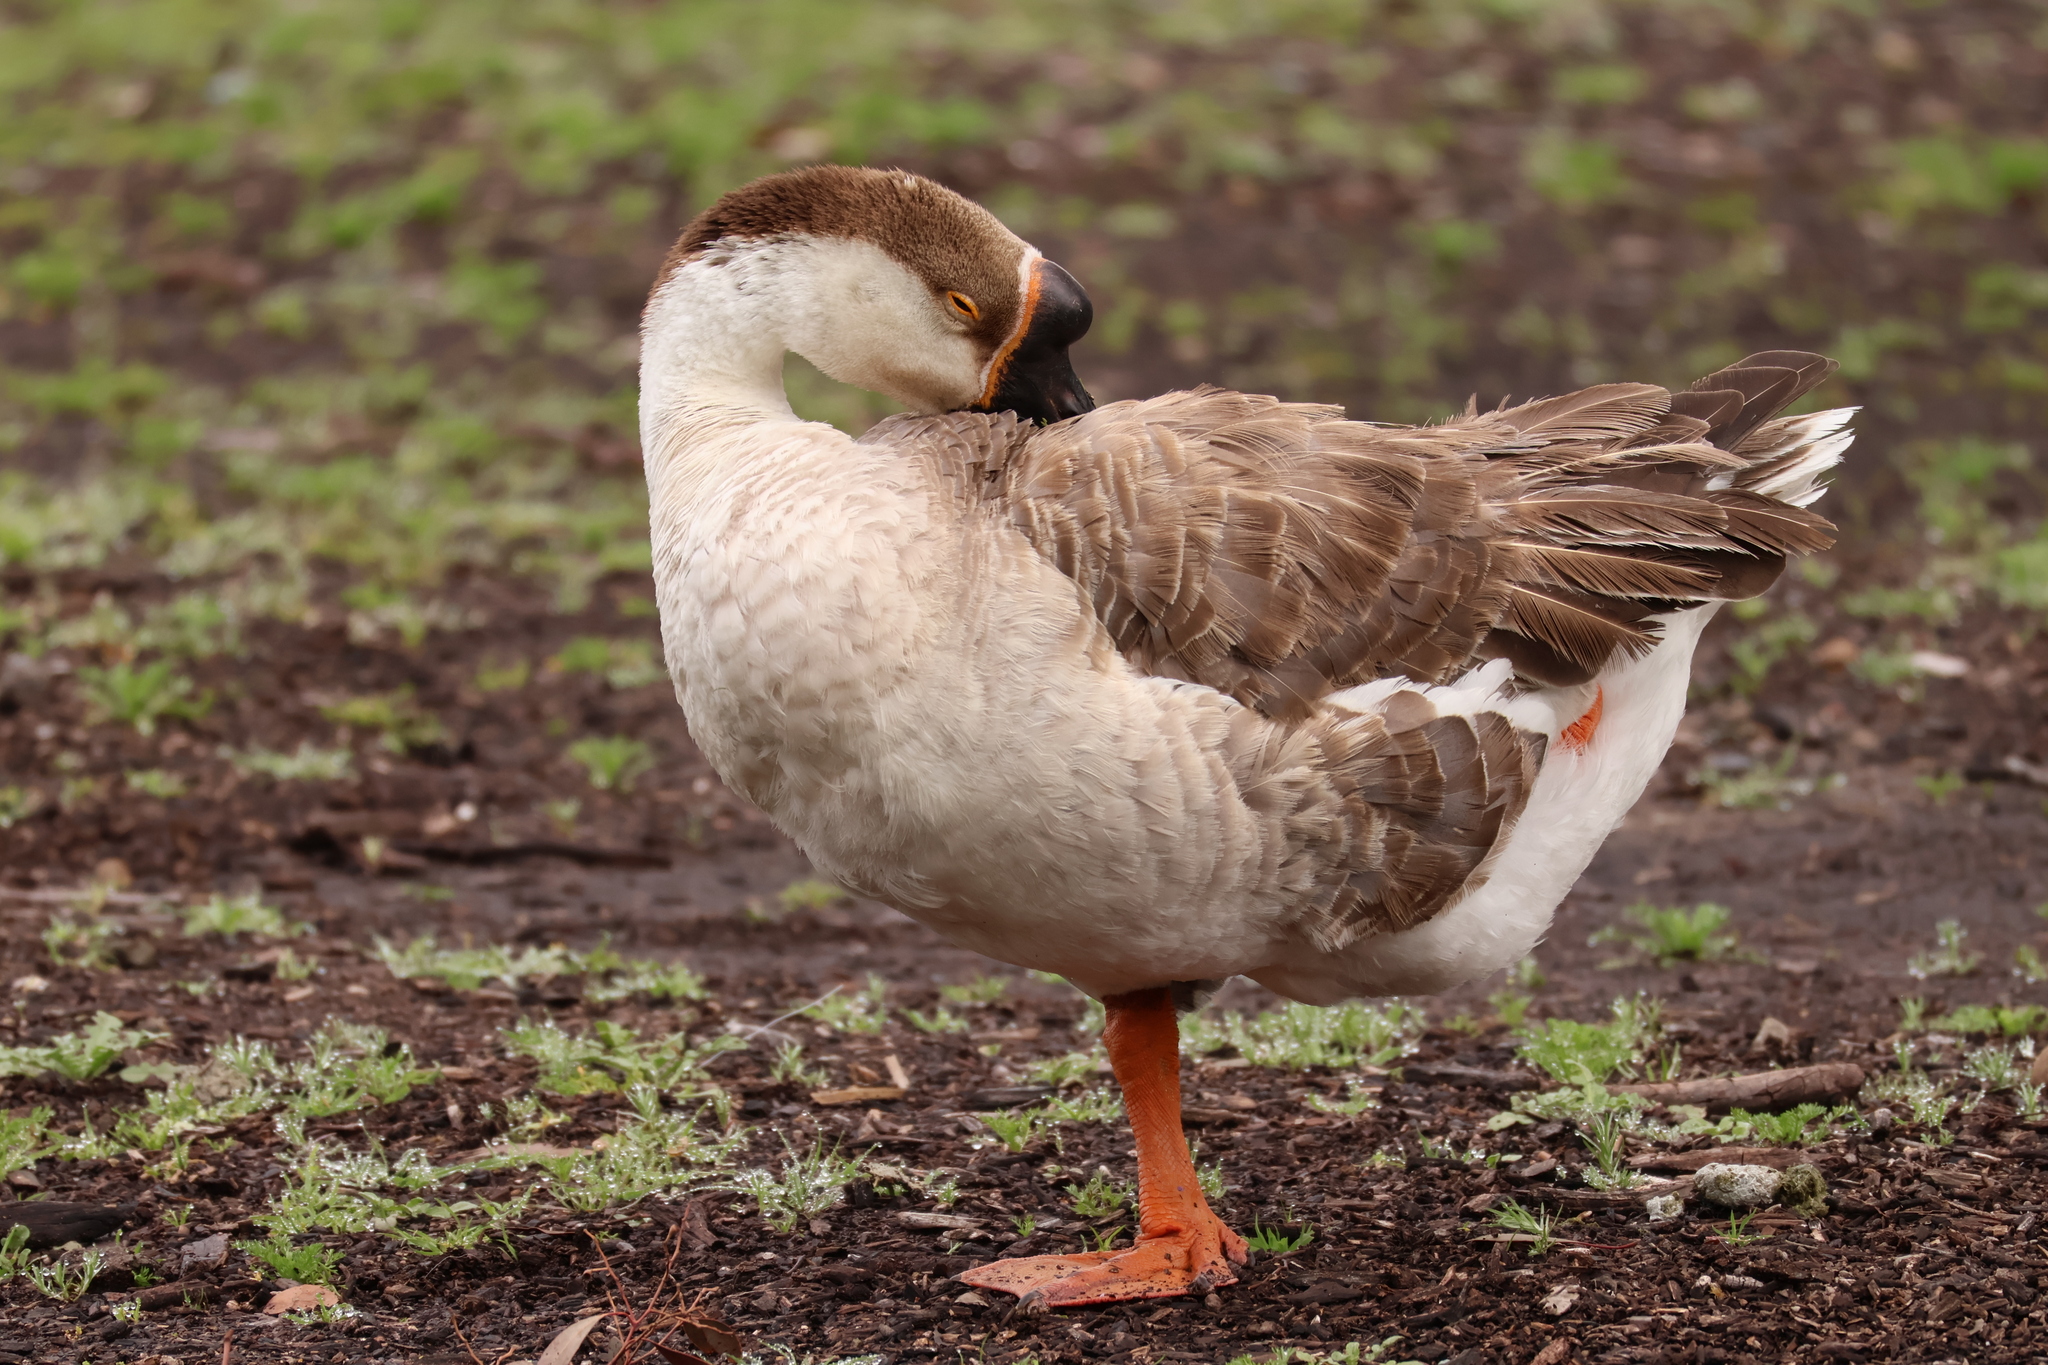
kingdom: Animalia
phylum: Chordata
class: Aves
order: Anseriformes
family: Anatidae
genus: Anser
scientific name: Anser cygnoides
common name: Swan goose
